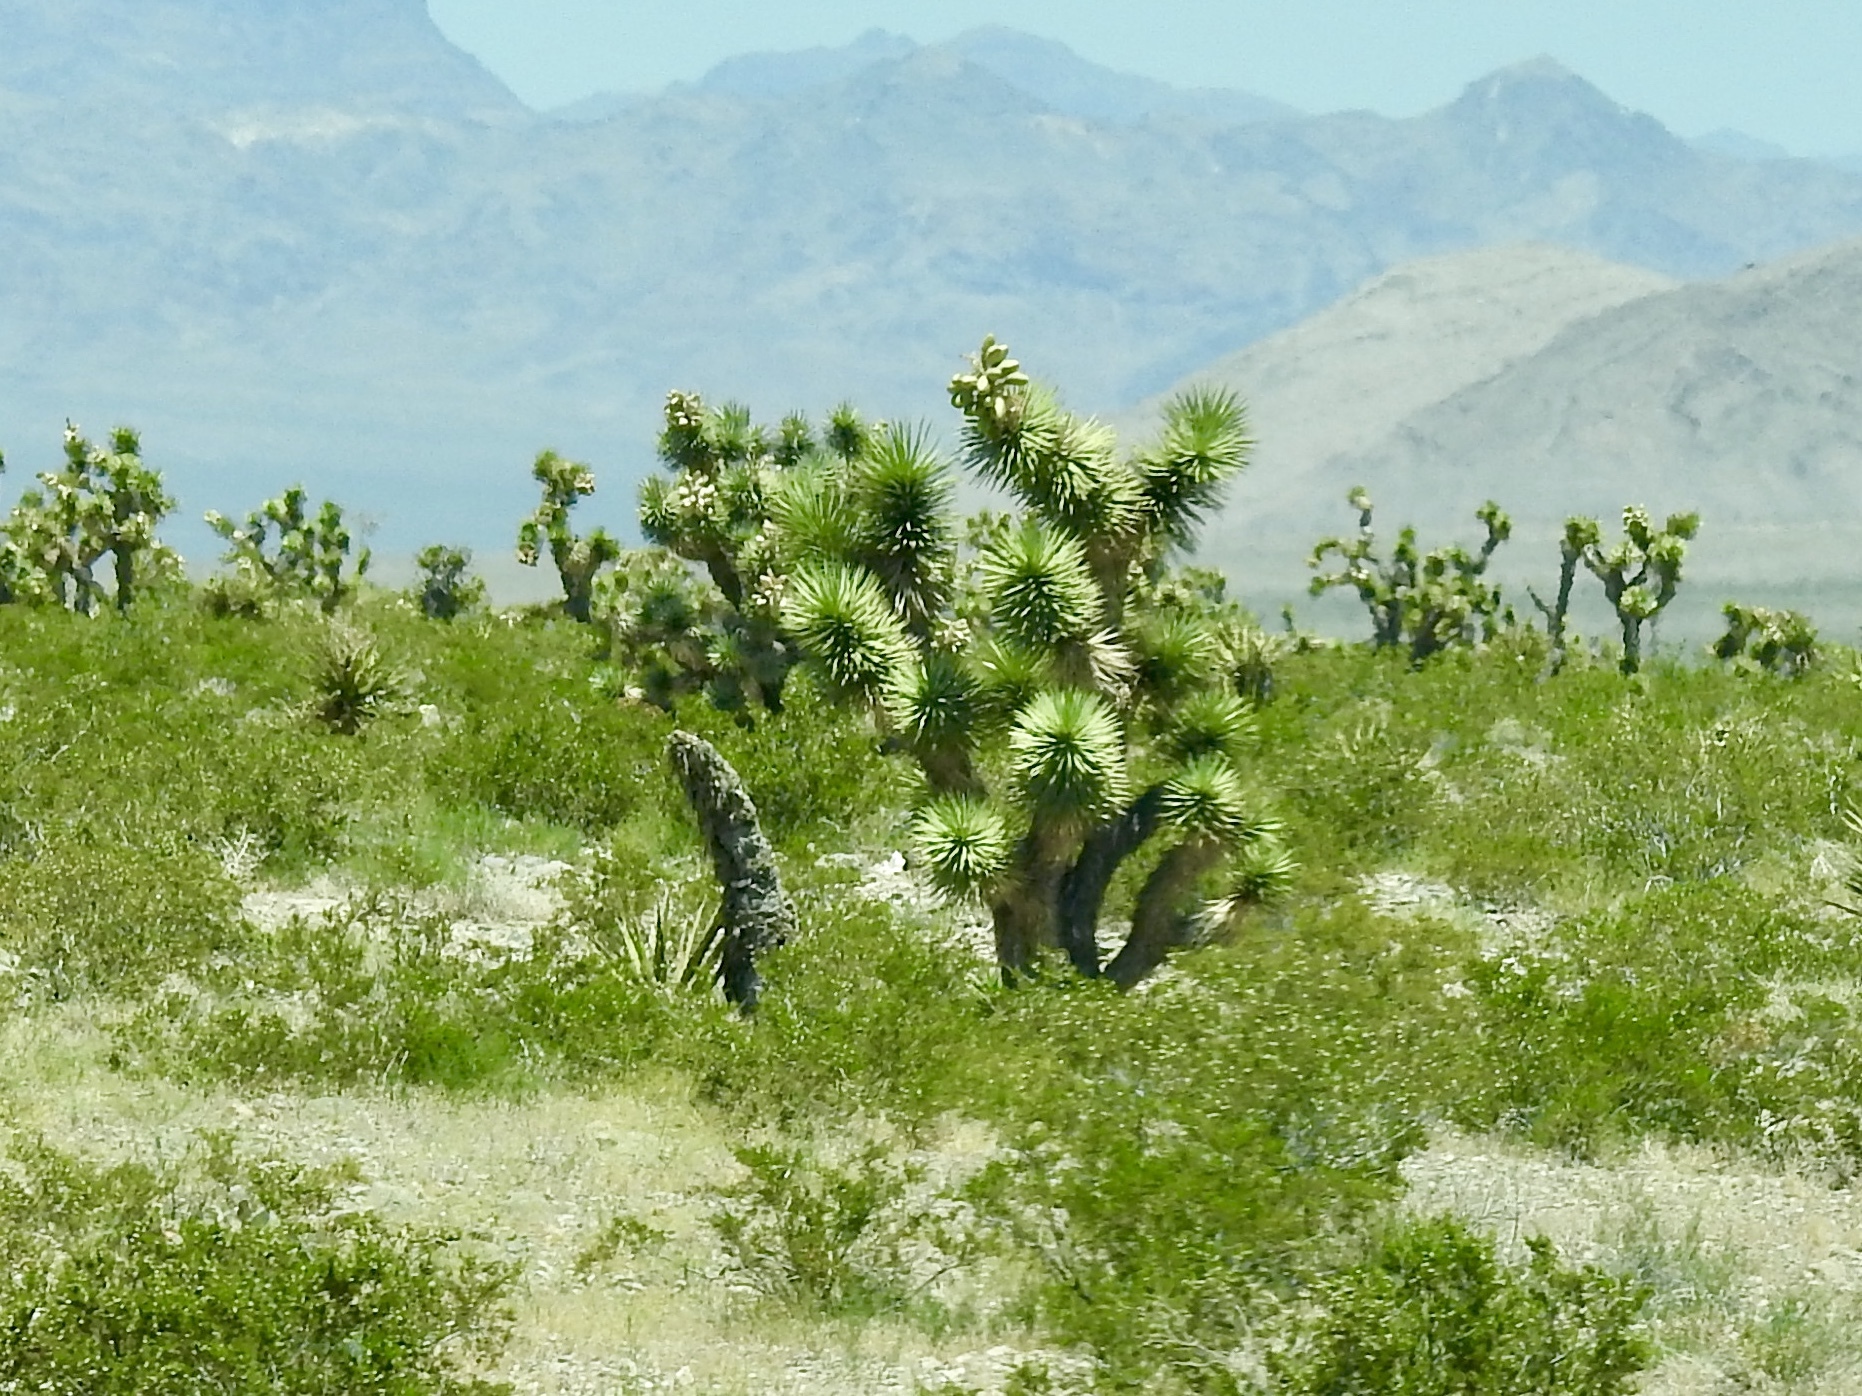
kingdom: Plantae
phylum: Tracheophyta
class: Liliopsida
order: Asparagales
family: Asparagaceae
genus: Yucca
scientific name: Yucca brevifolia
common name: Joshua tree
